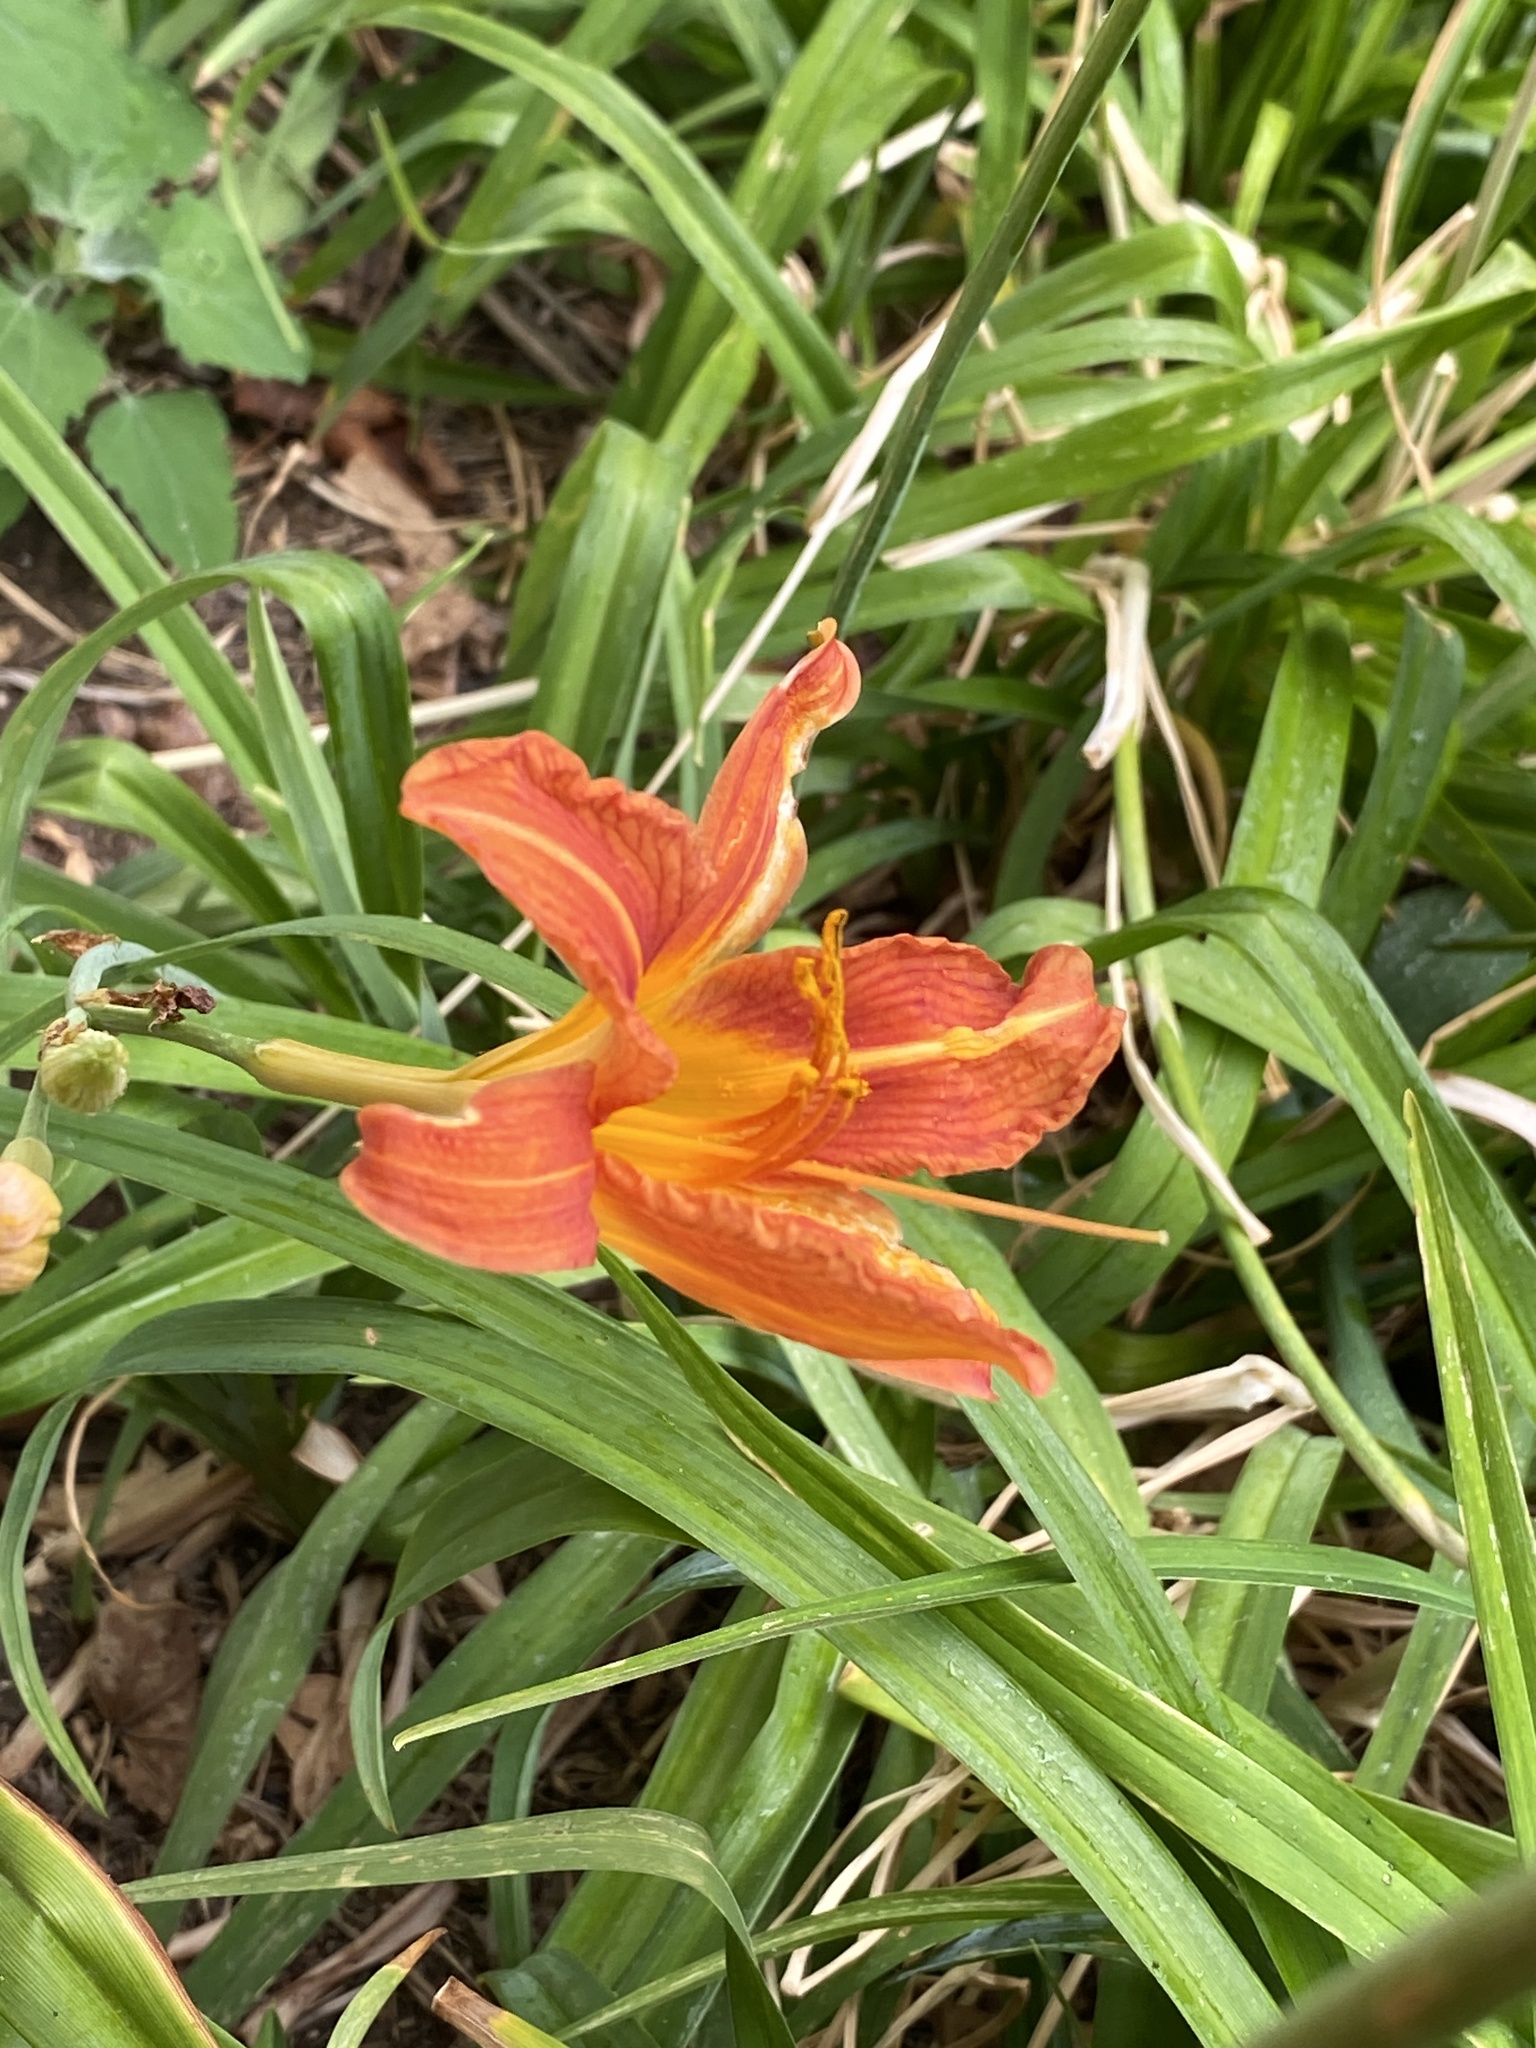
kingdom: Plantae
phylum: Tracheophyta
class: Liliopsida
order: Asparagales
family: Asphodelaceae
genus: Hemerocallis
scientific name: Hemerocallis fulva
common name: Orange day-lily
